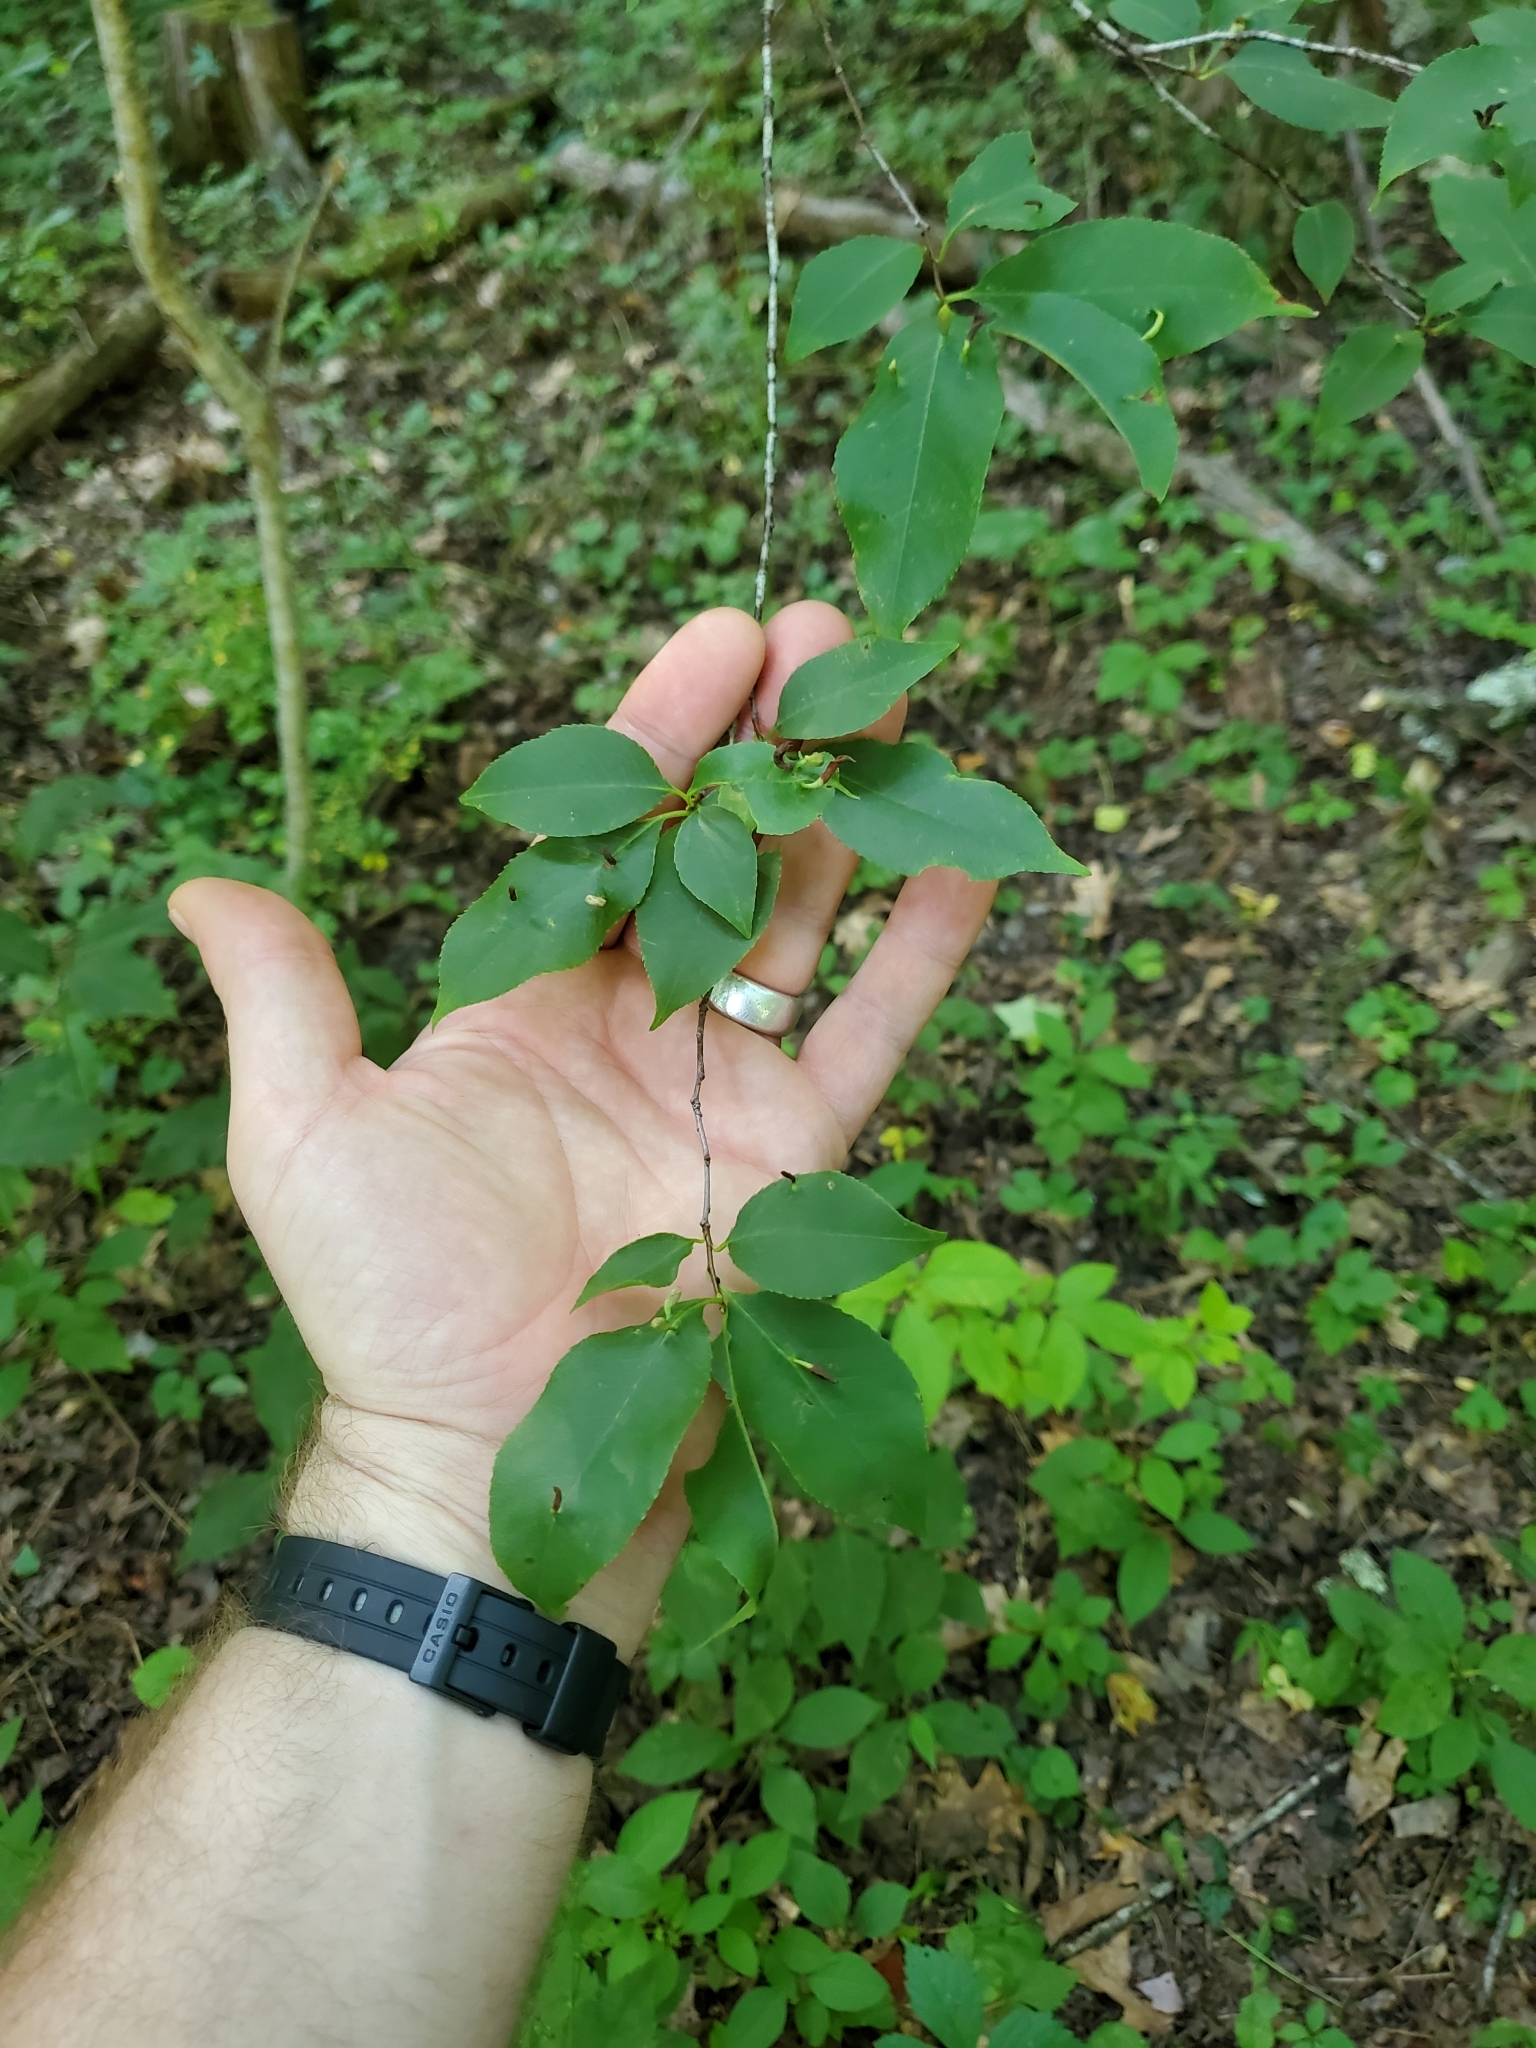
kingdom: Animalia
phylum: Arthropoda
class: Arachnida
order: Trombidiformes
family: Eriophyidae
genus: Eriophyes
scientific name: Eriophyes
